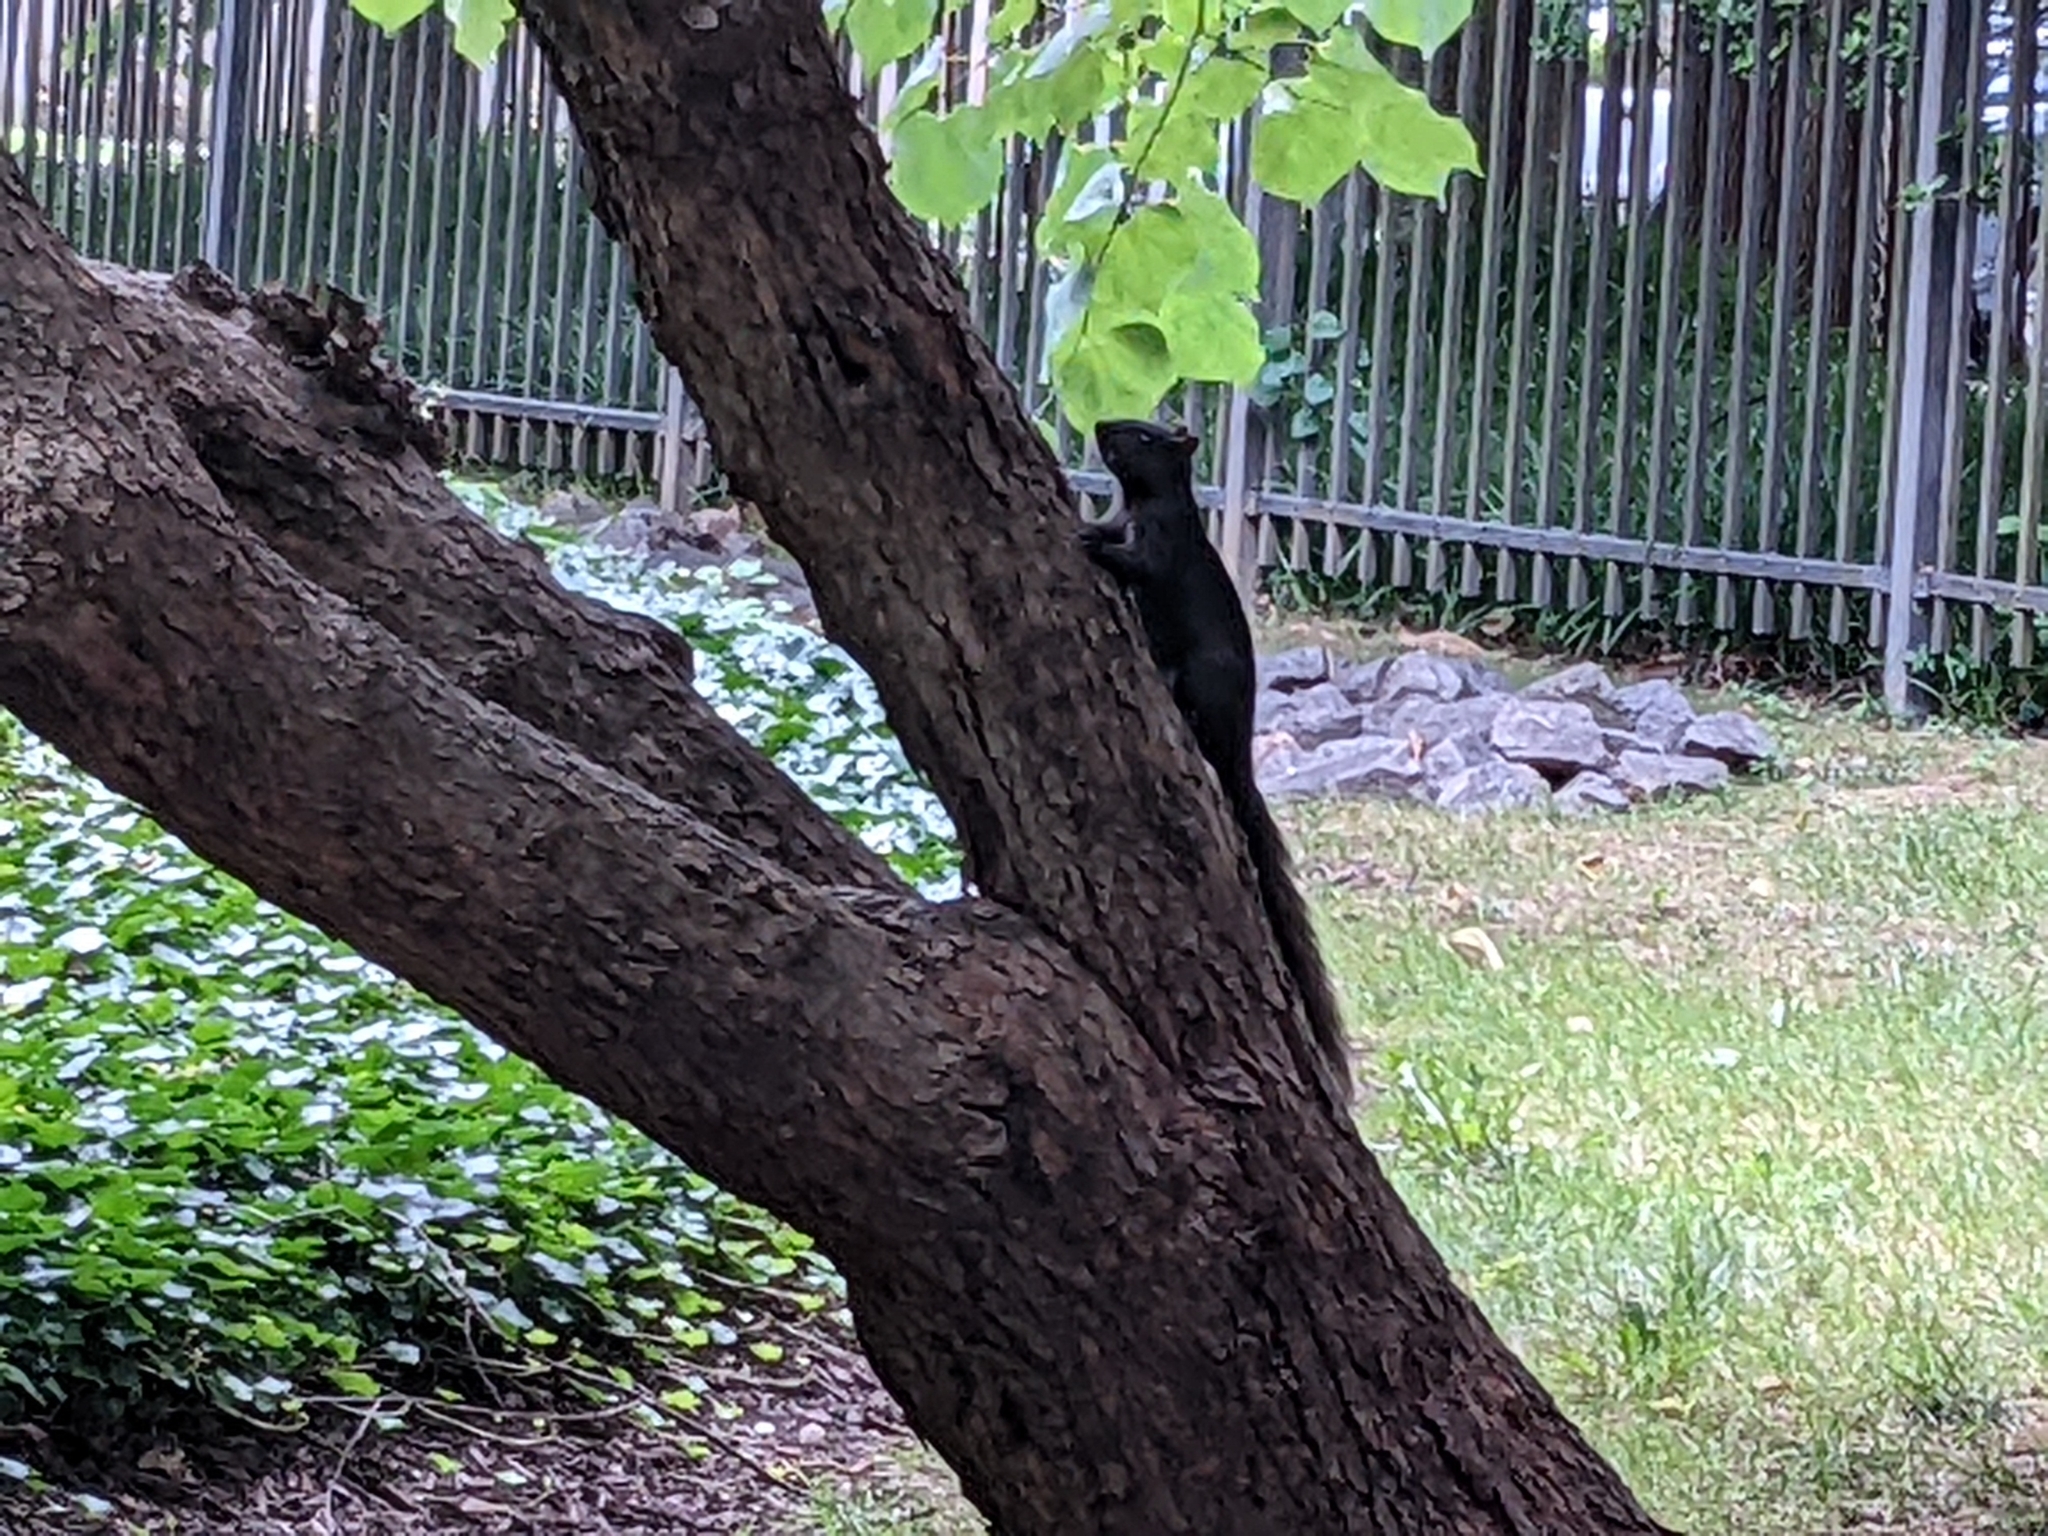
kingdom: Animalia
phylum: Chordata
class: Mammalia
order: Rodentia
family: Sciuridae
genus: Sciurus
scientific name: Sciurus carolinensis
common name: Eastern gray squirrel
